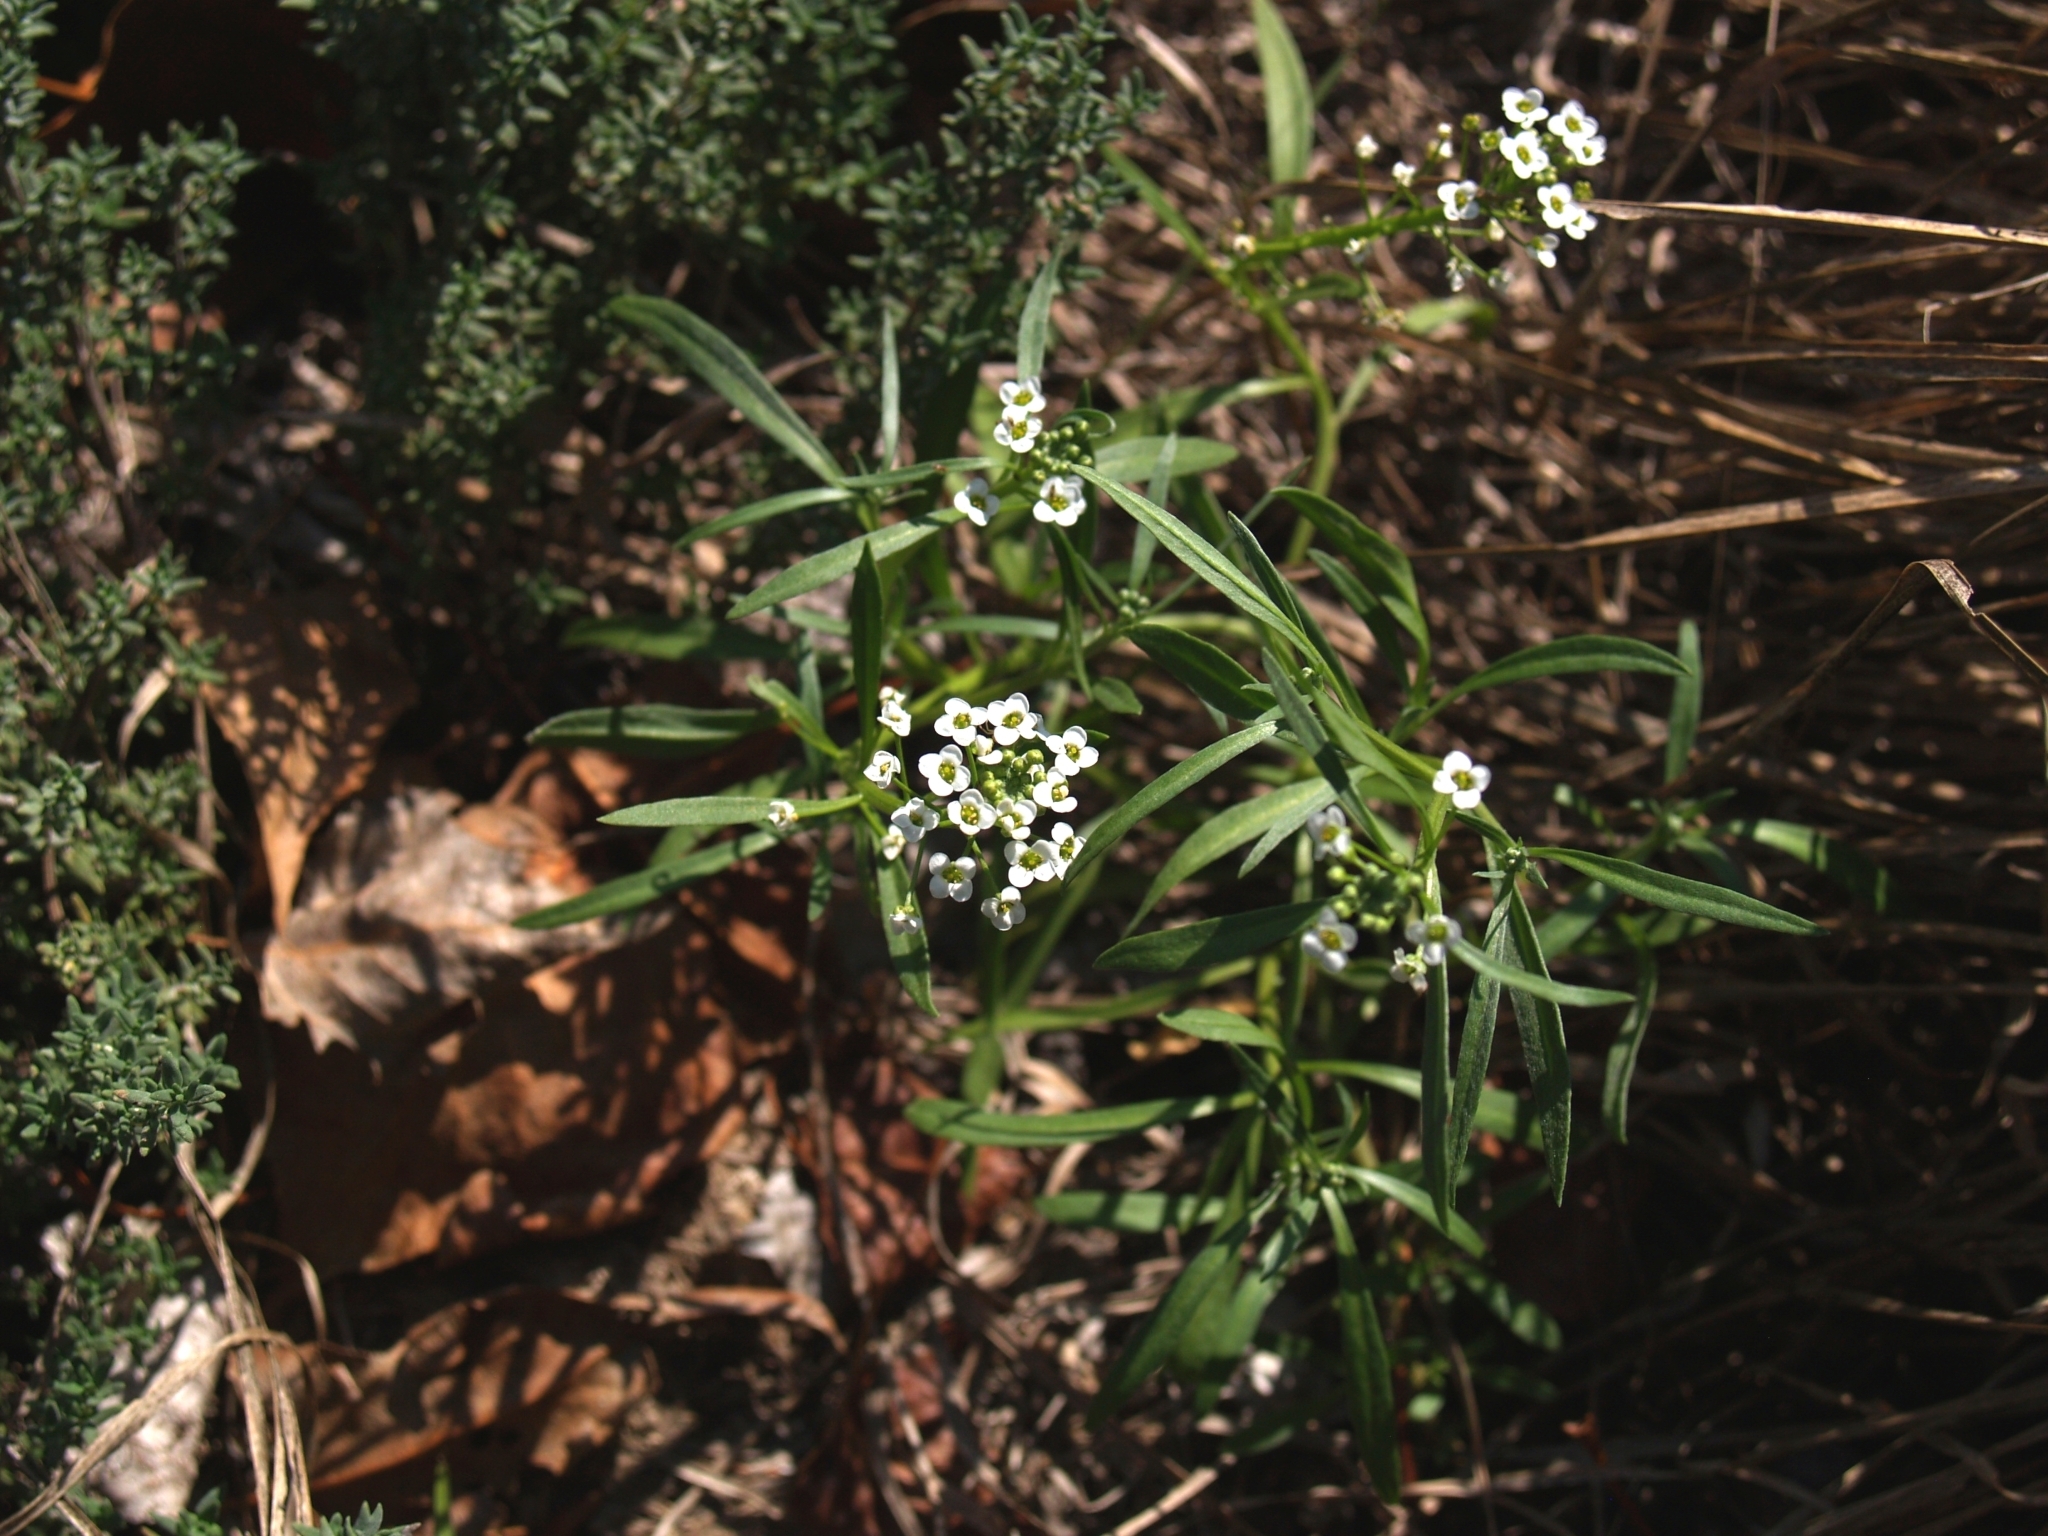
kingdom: Plantae
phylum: Tracheophyta
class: Magnoliopsida
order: Brassicales
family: Brassicaceae
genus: Lobularia
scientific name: Lobularia maritima
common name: Sweet alison
